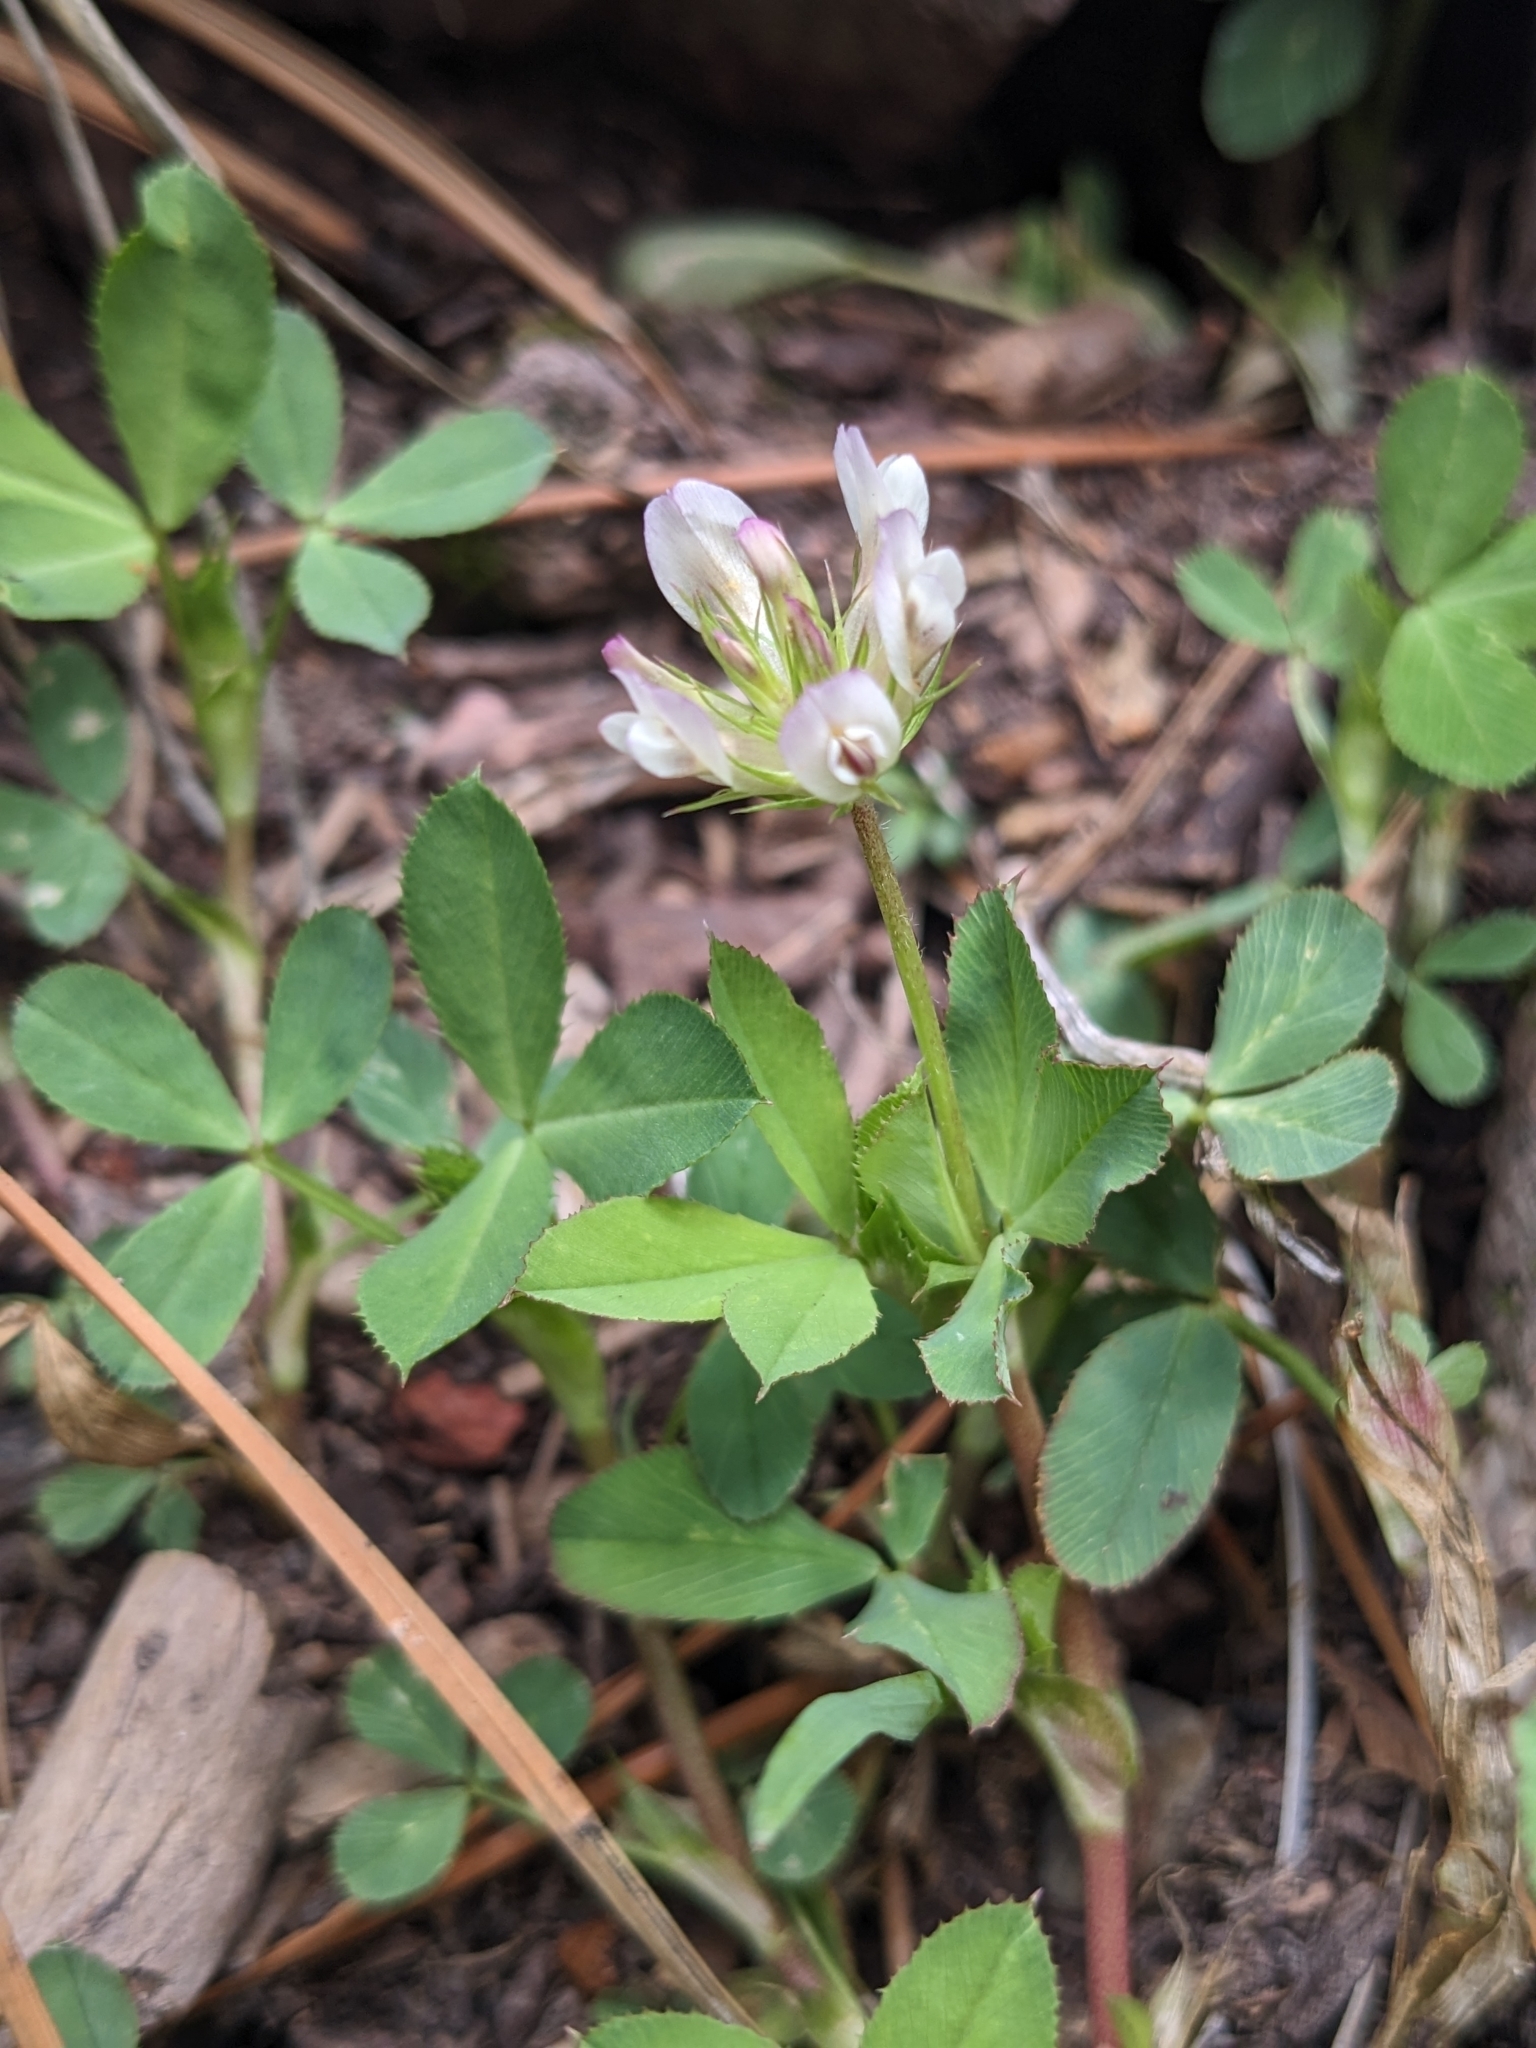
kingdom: Plantae
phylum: Tracheophyta
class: Magnoliopsida
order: Fabales
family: Fabaceae
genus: Trifolium
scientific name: Trifolium wormskioldii
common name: Springbank clover
